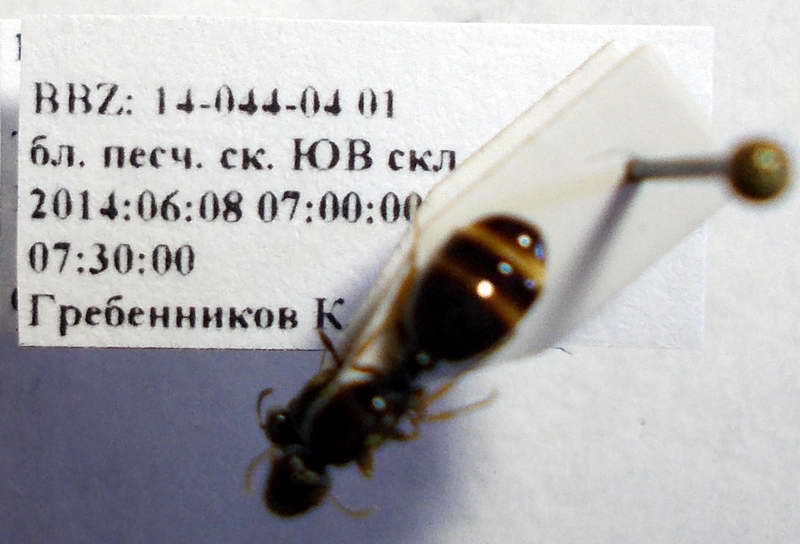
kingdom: Animalia
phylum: Arthropoda
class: Insecta
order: Hymenoptera
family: Formicidae
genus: Tetramorium
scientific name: Tetramorium caespitum
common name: Pavement ant
